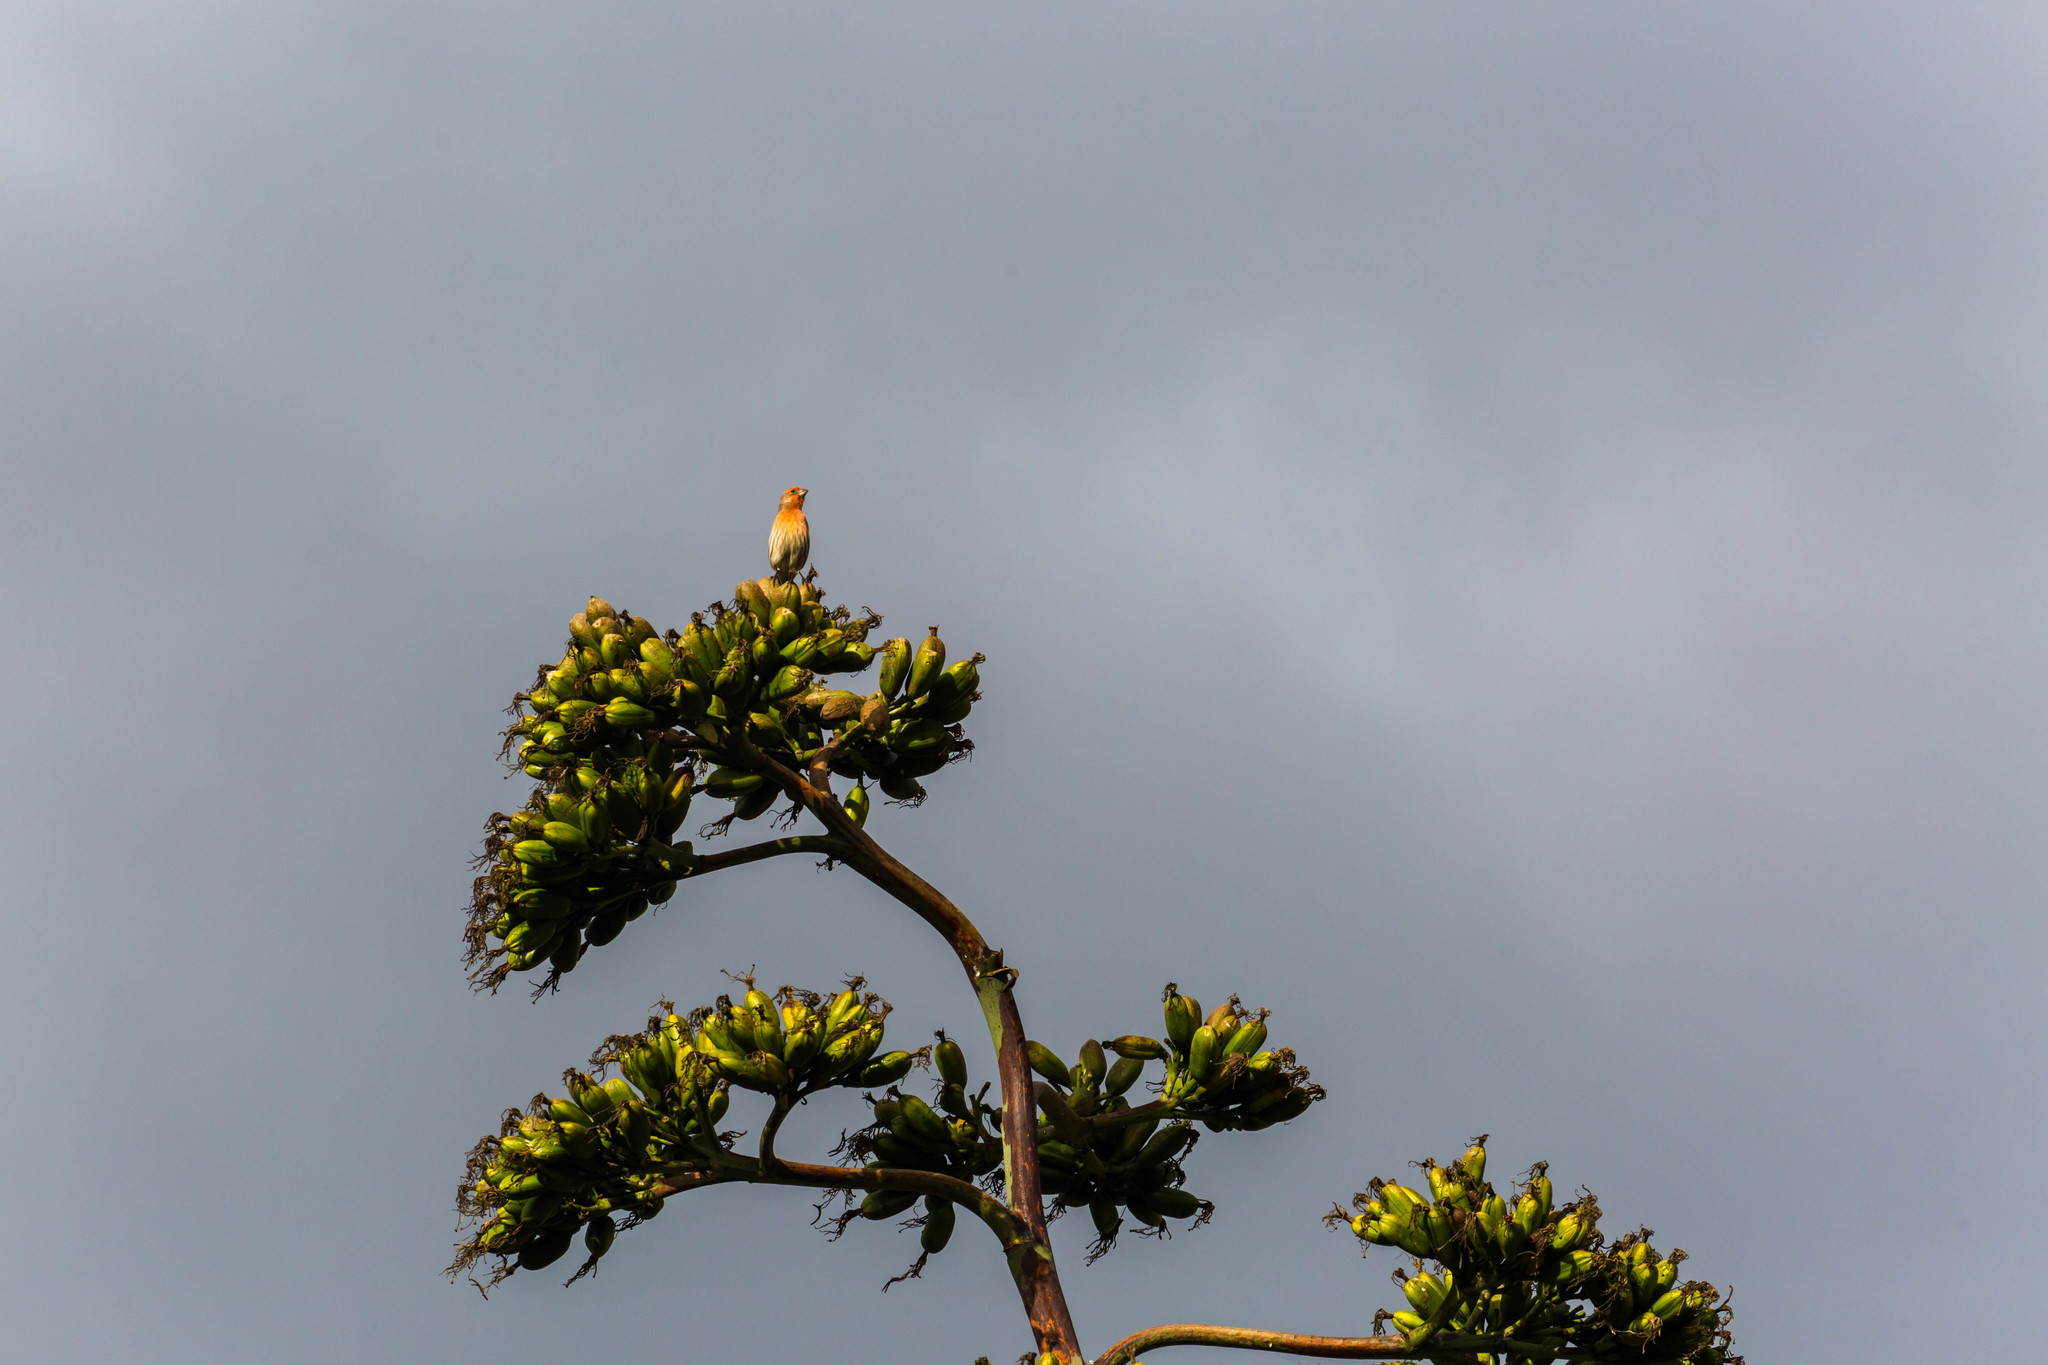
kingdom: Animalia
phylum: Chordata
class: Aves
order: Passeriformes
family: Fringillidae
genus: Haemorhous
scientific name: Haemorhous mexicanus
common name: House finch
